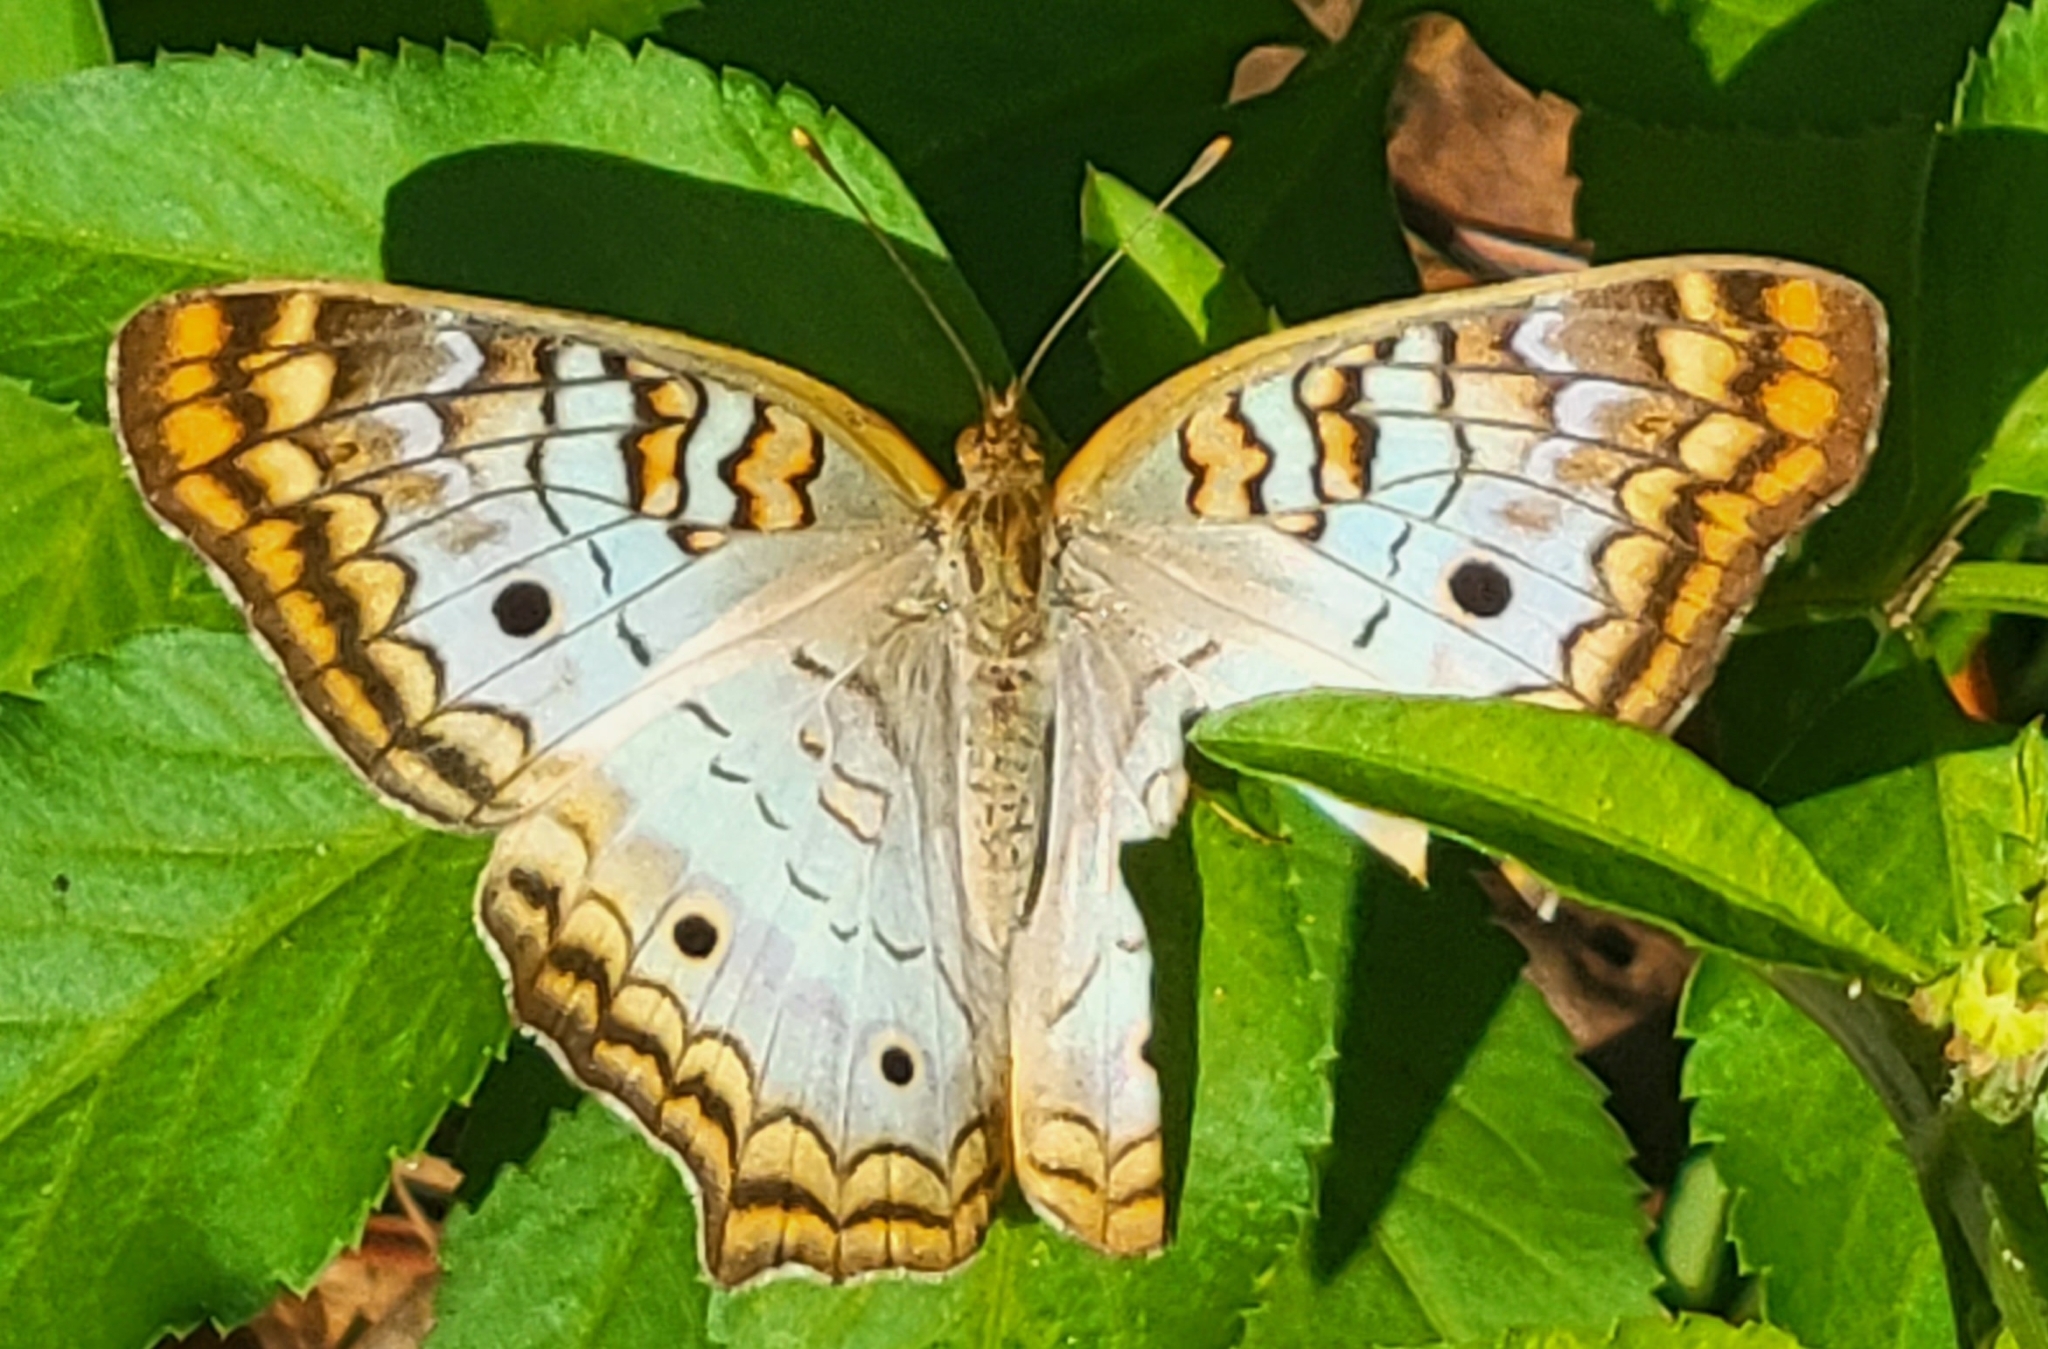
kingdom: Animalia
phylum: Arthropoda
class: Insecta
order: Lepidoptera
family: Nymphalidae
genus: Anartia
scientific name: Anartia jatrophae
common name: White peacock
